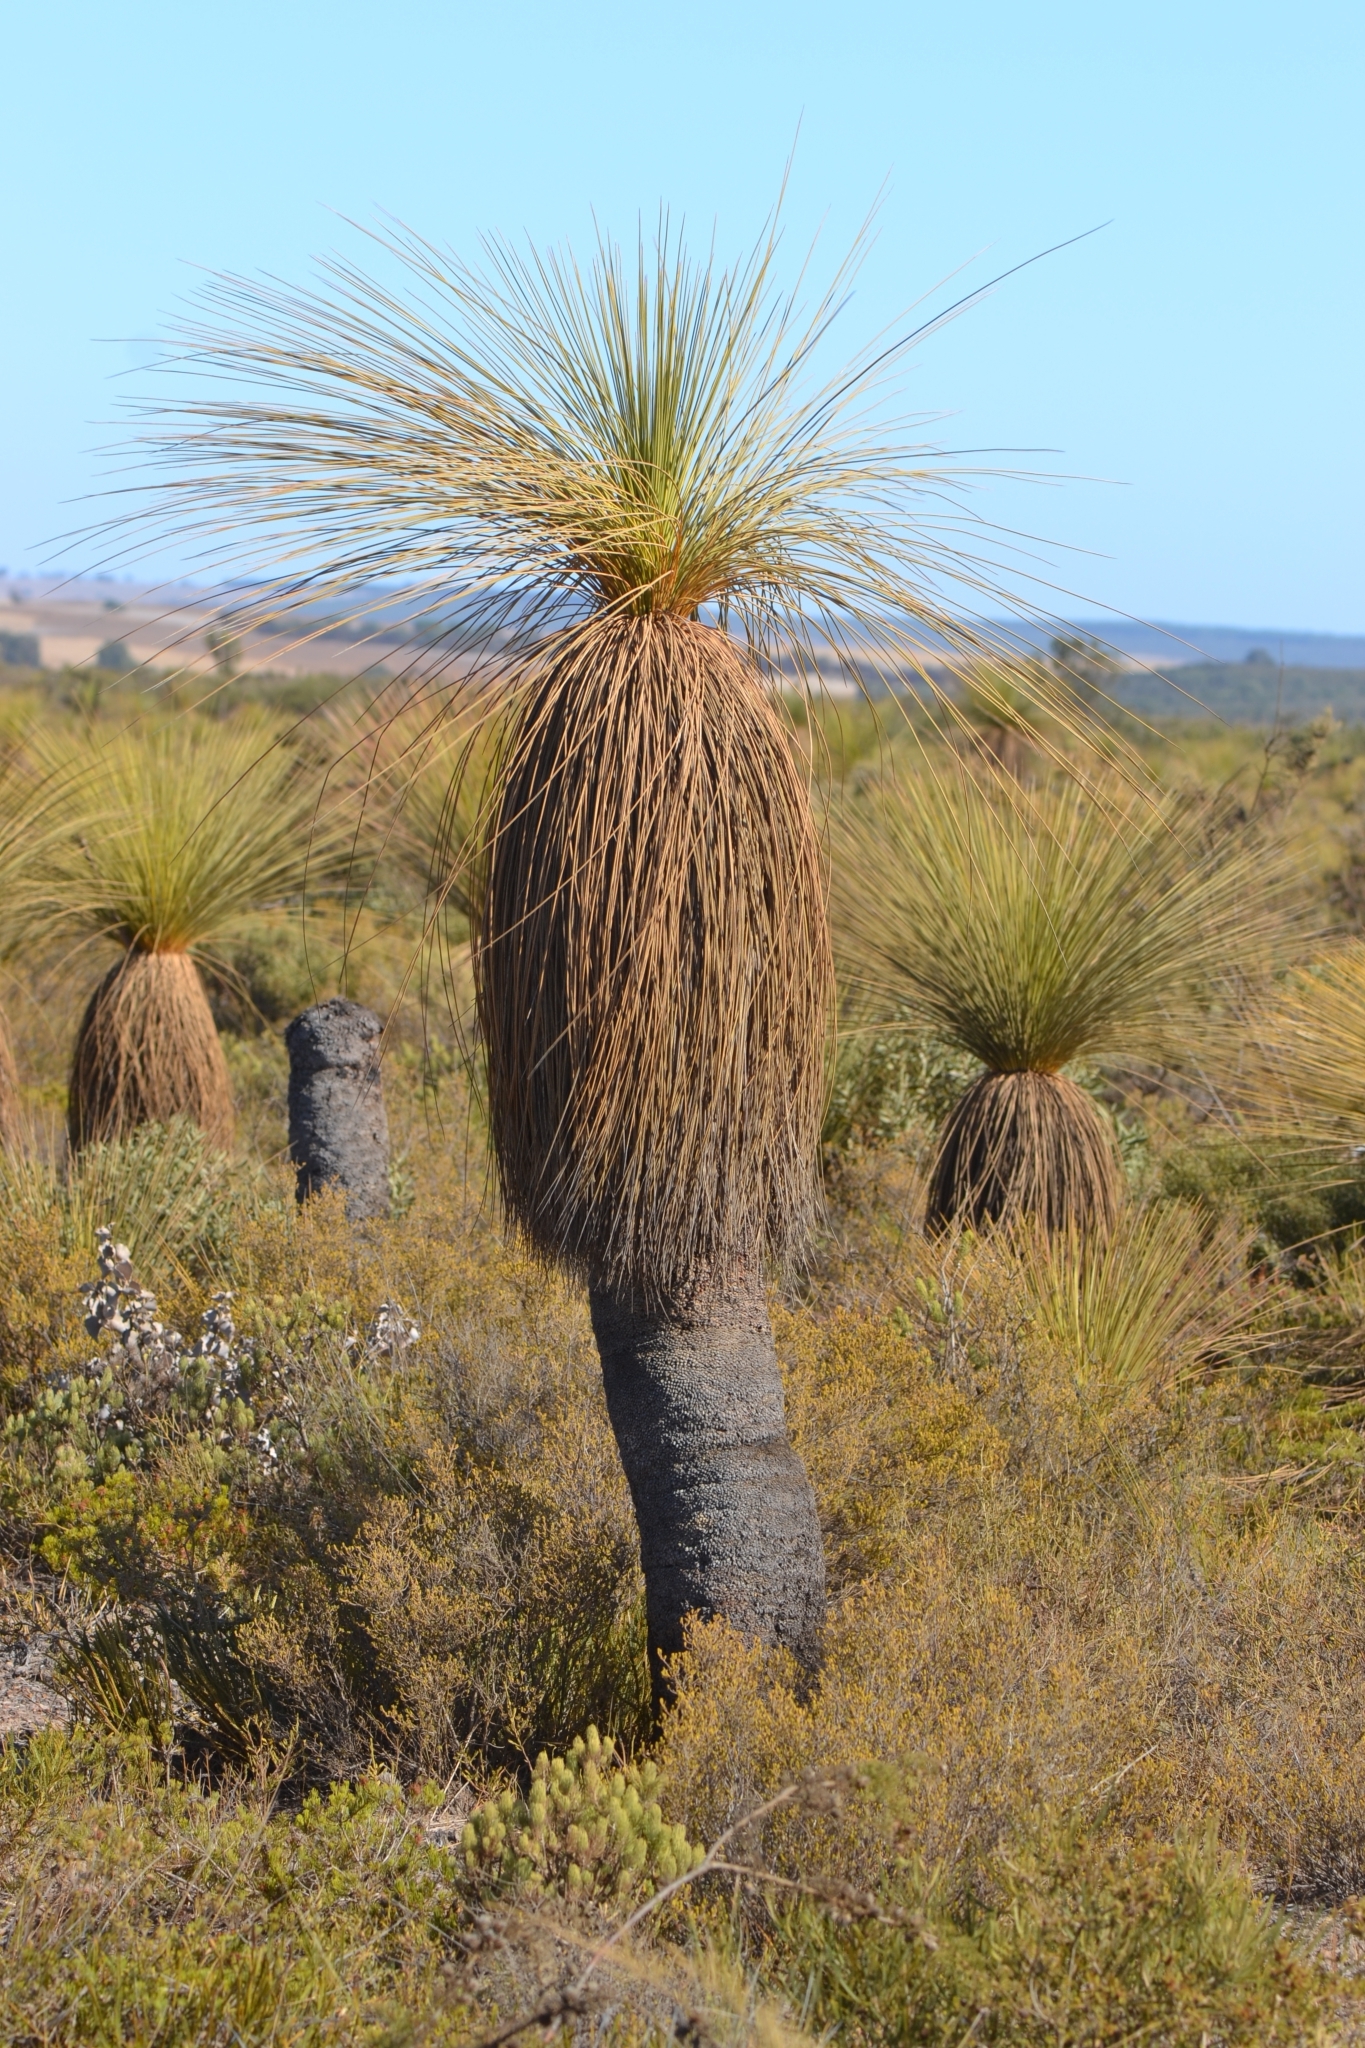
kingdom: Plantae
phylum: Tracheophyta
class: Liliopsida
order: Asparagales
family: Asphodelaceae
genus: Xanthorrhoea
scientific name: Xanthorrhoea drummondii
